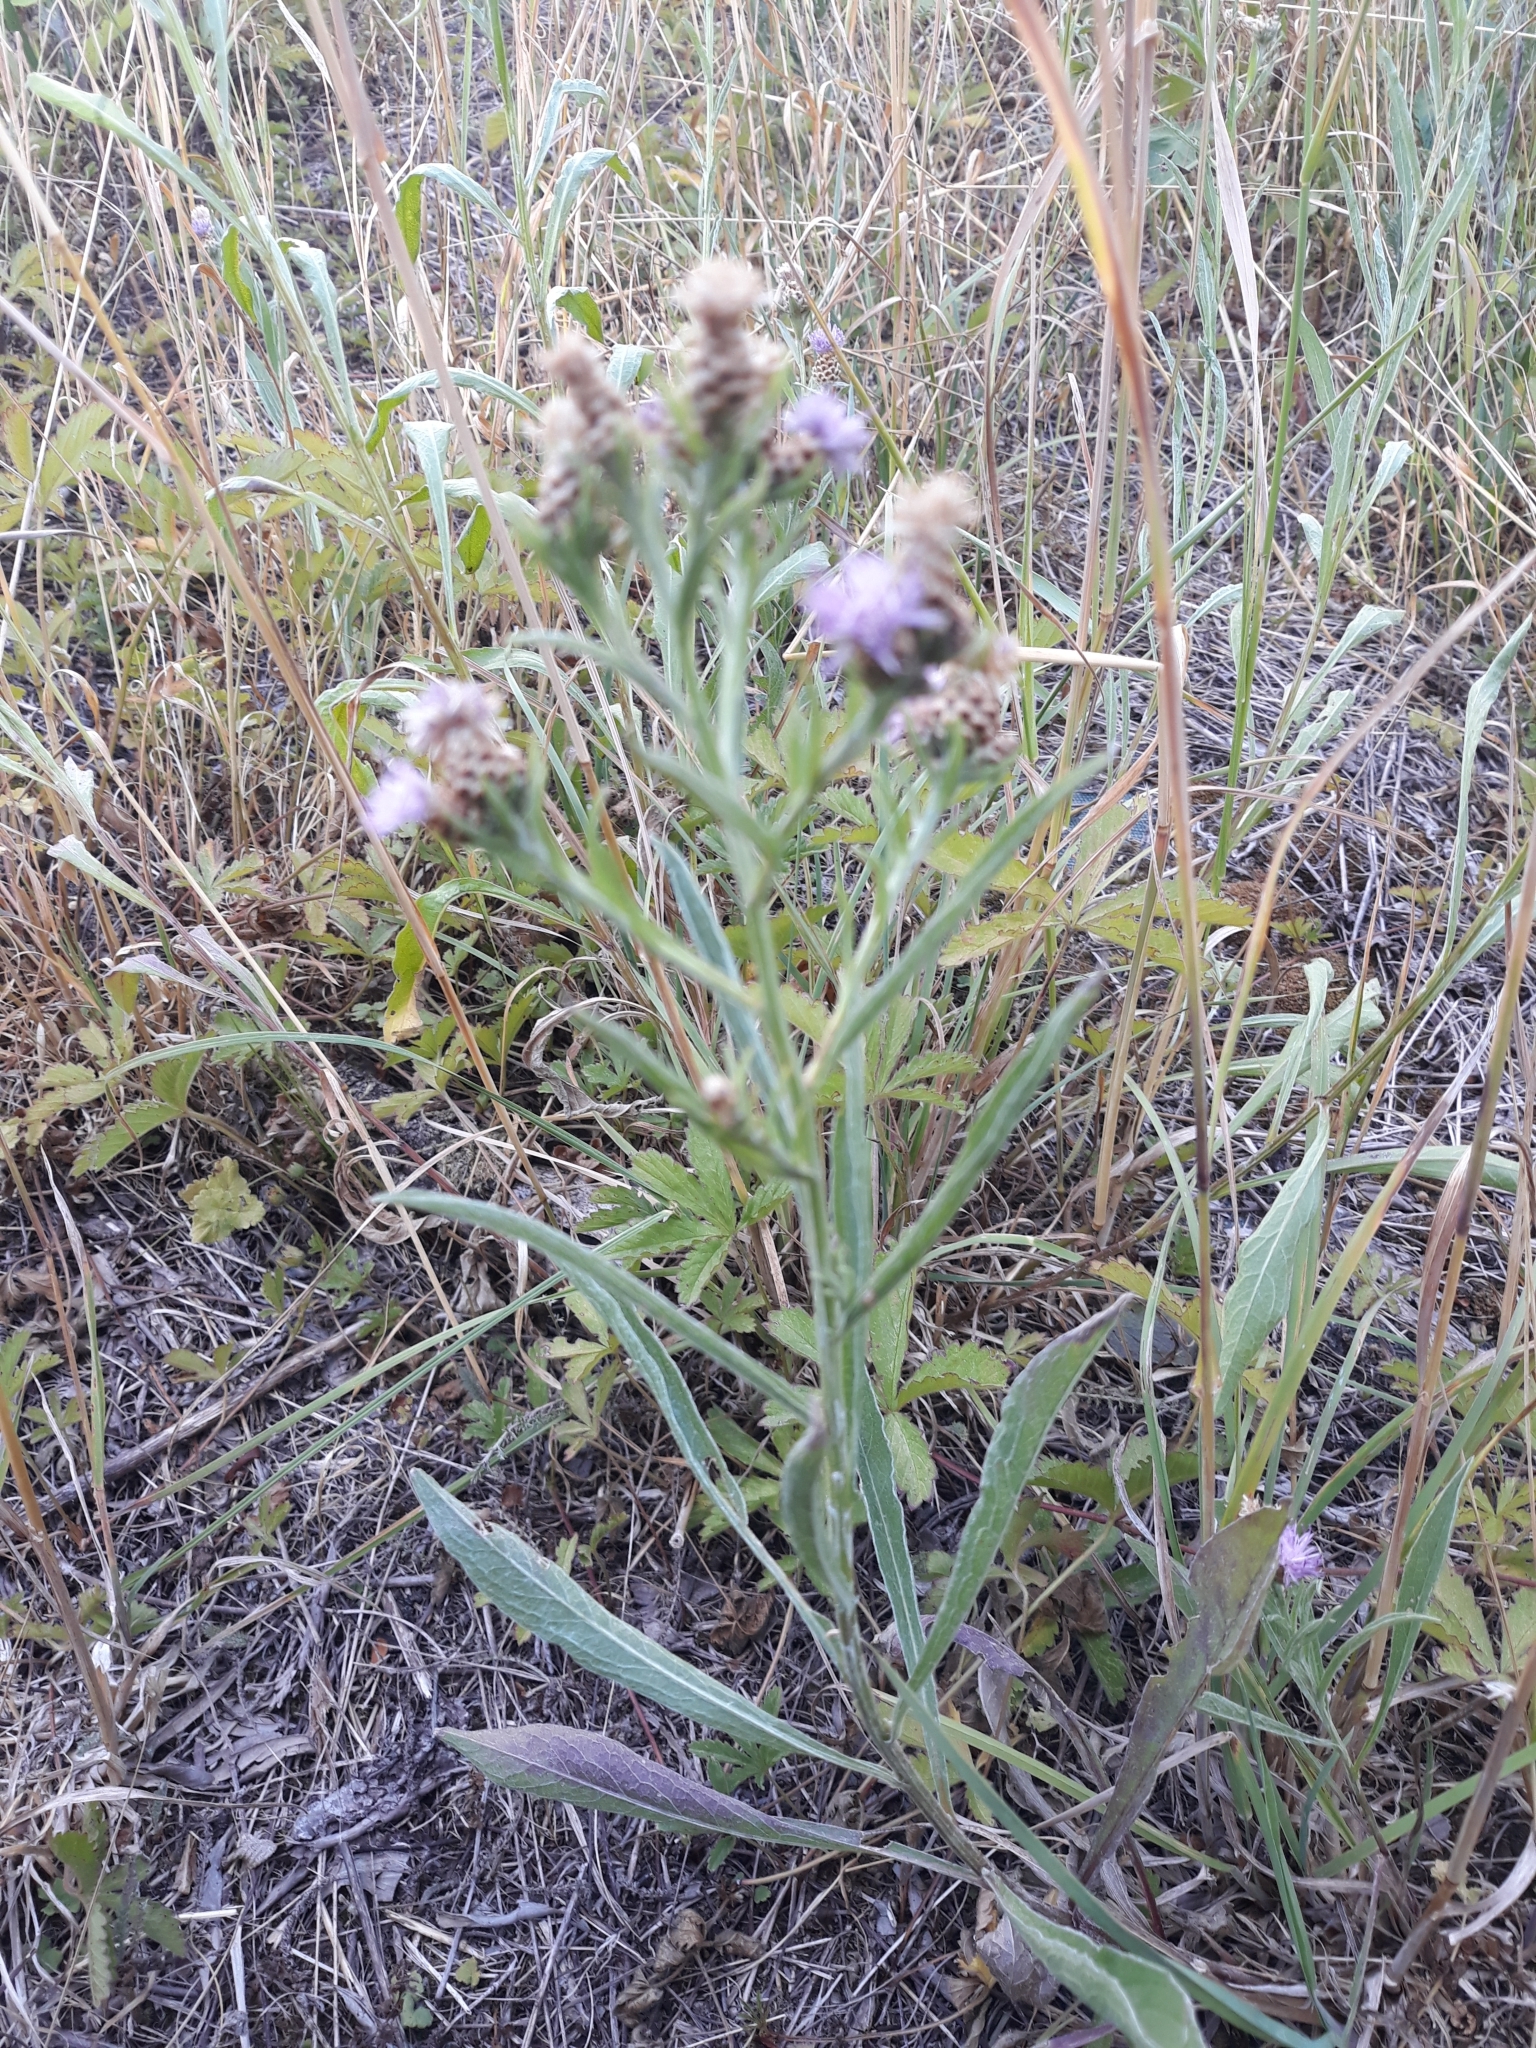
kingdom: Plantae
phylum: Tracheophyta
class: Magnoliopsida
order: Asterales
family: Asteraceae
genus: Centaurea
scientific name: Centaurea jacea
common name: Brown knapweed
